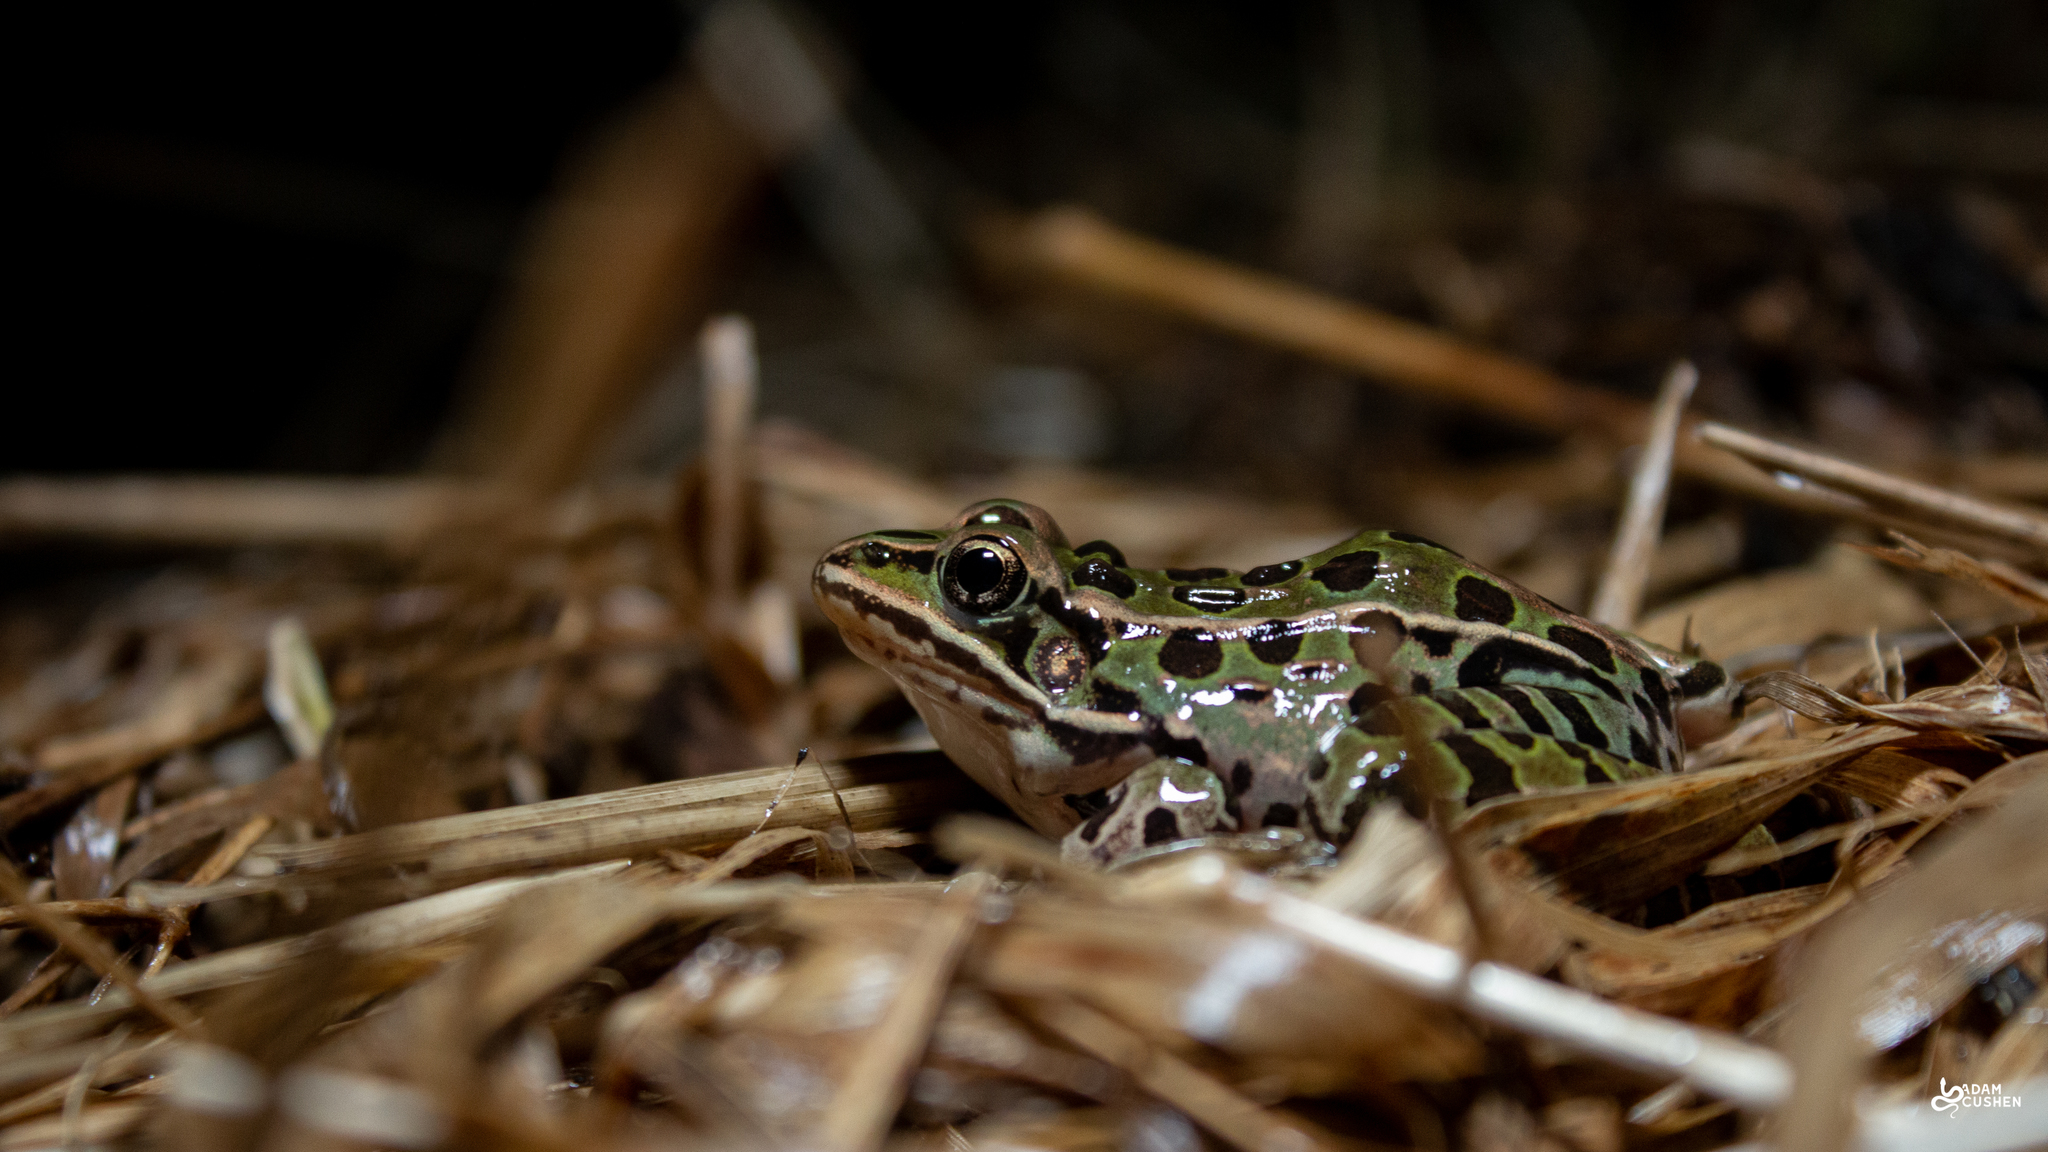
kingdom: Animalia
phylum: Chordata
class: Amphibia
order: Anura
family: Ranidae
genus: Lithobates
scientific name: Lithobates pipiens
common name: Northern leopard frog
